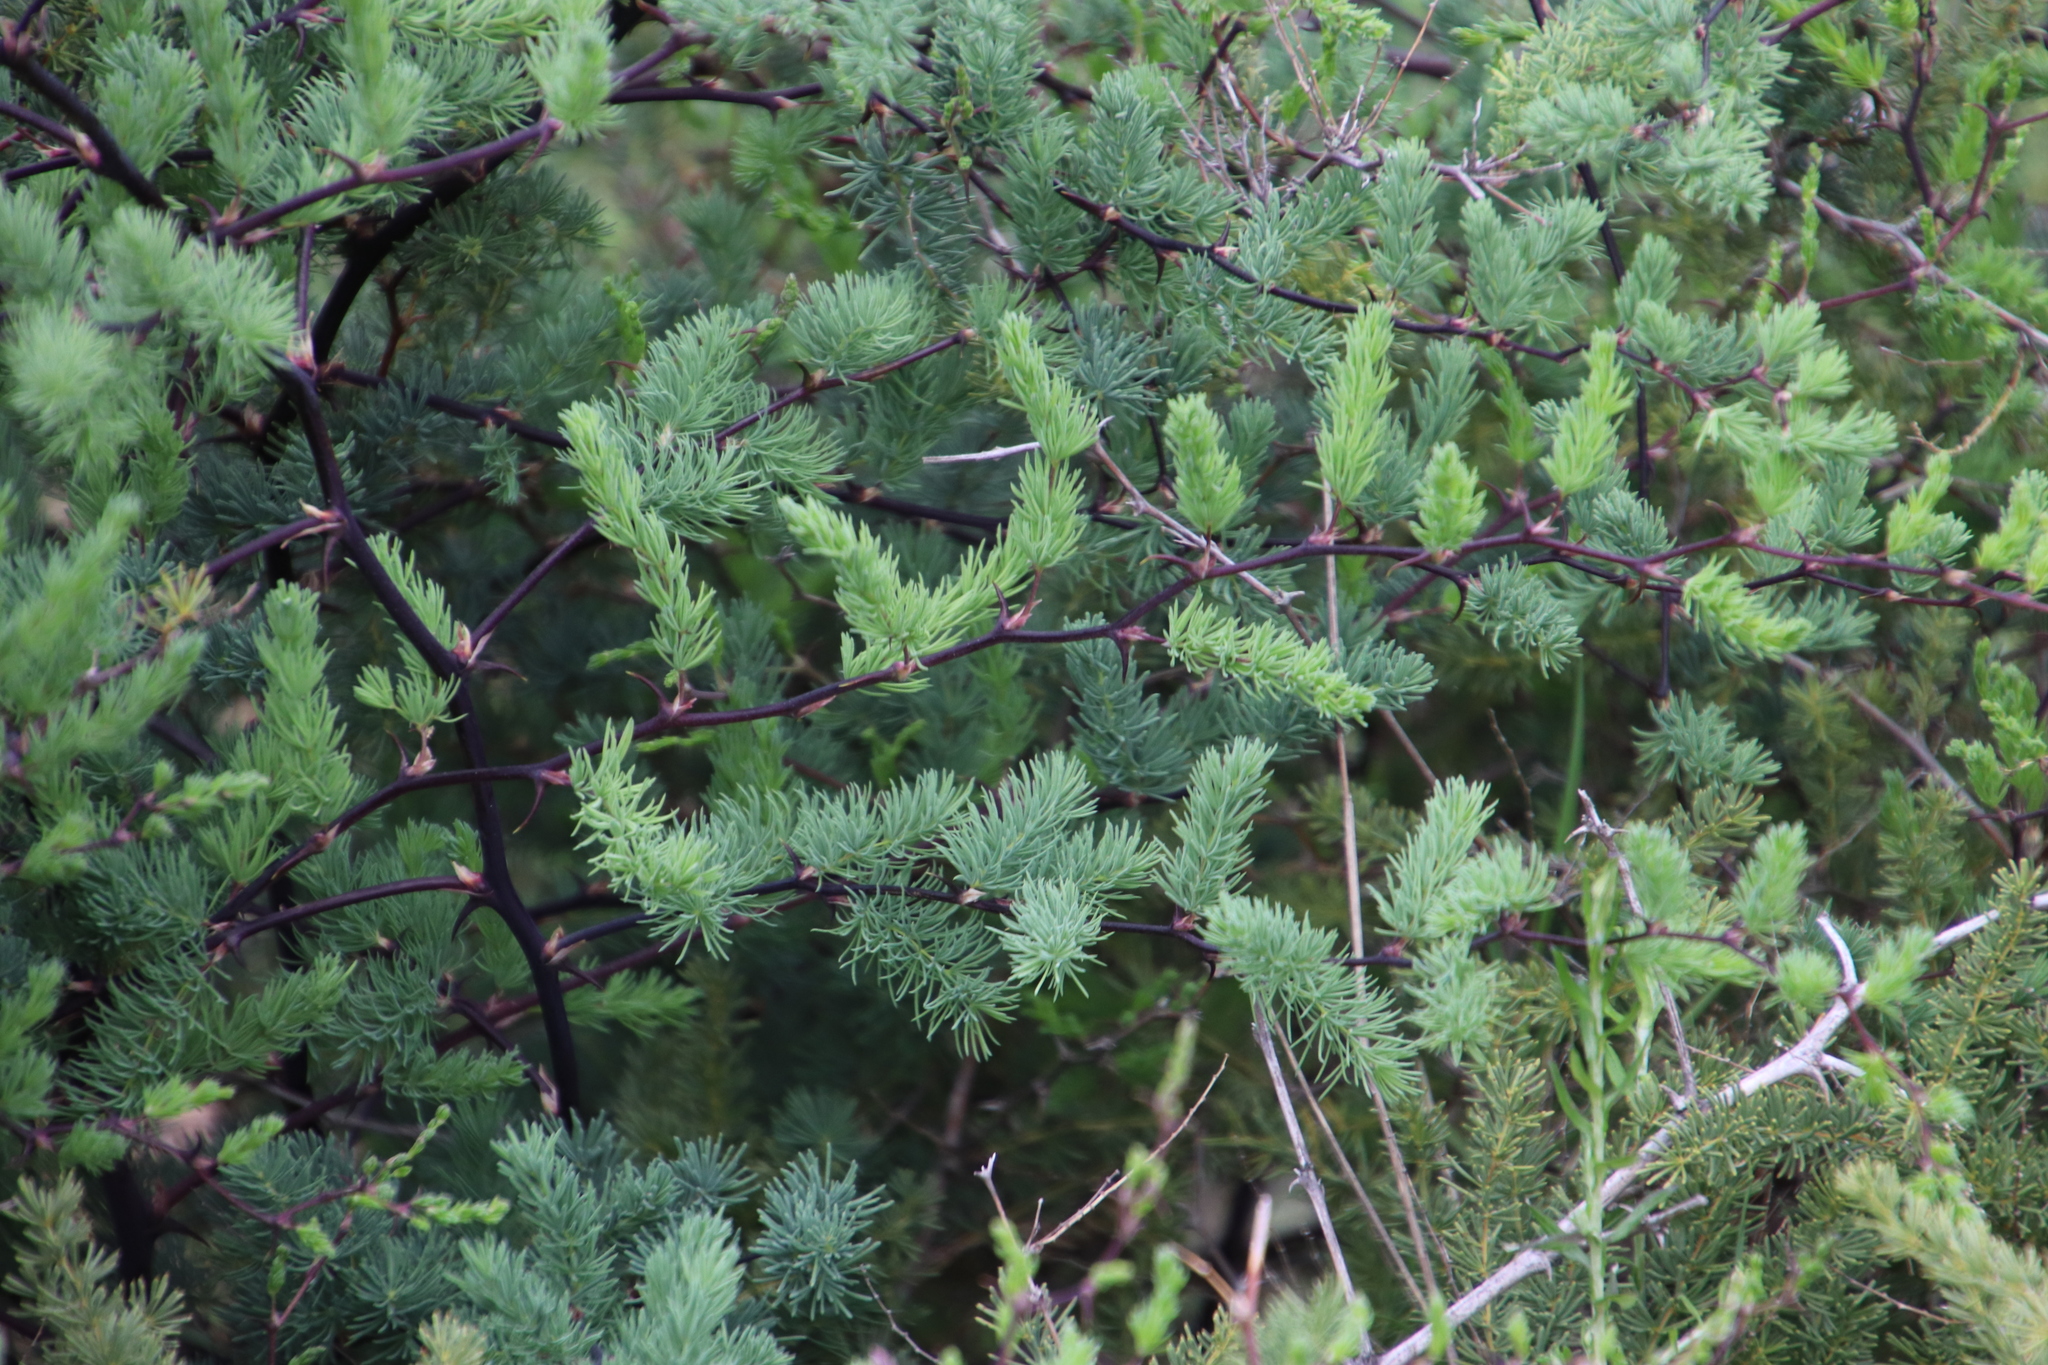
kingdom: Plantae
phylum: Tracheophyta
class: Liliopsida
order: Asparagales
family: Asparagaceae
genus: Asparagus
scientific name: Asparagus rubicundus
